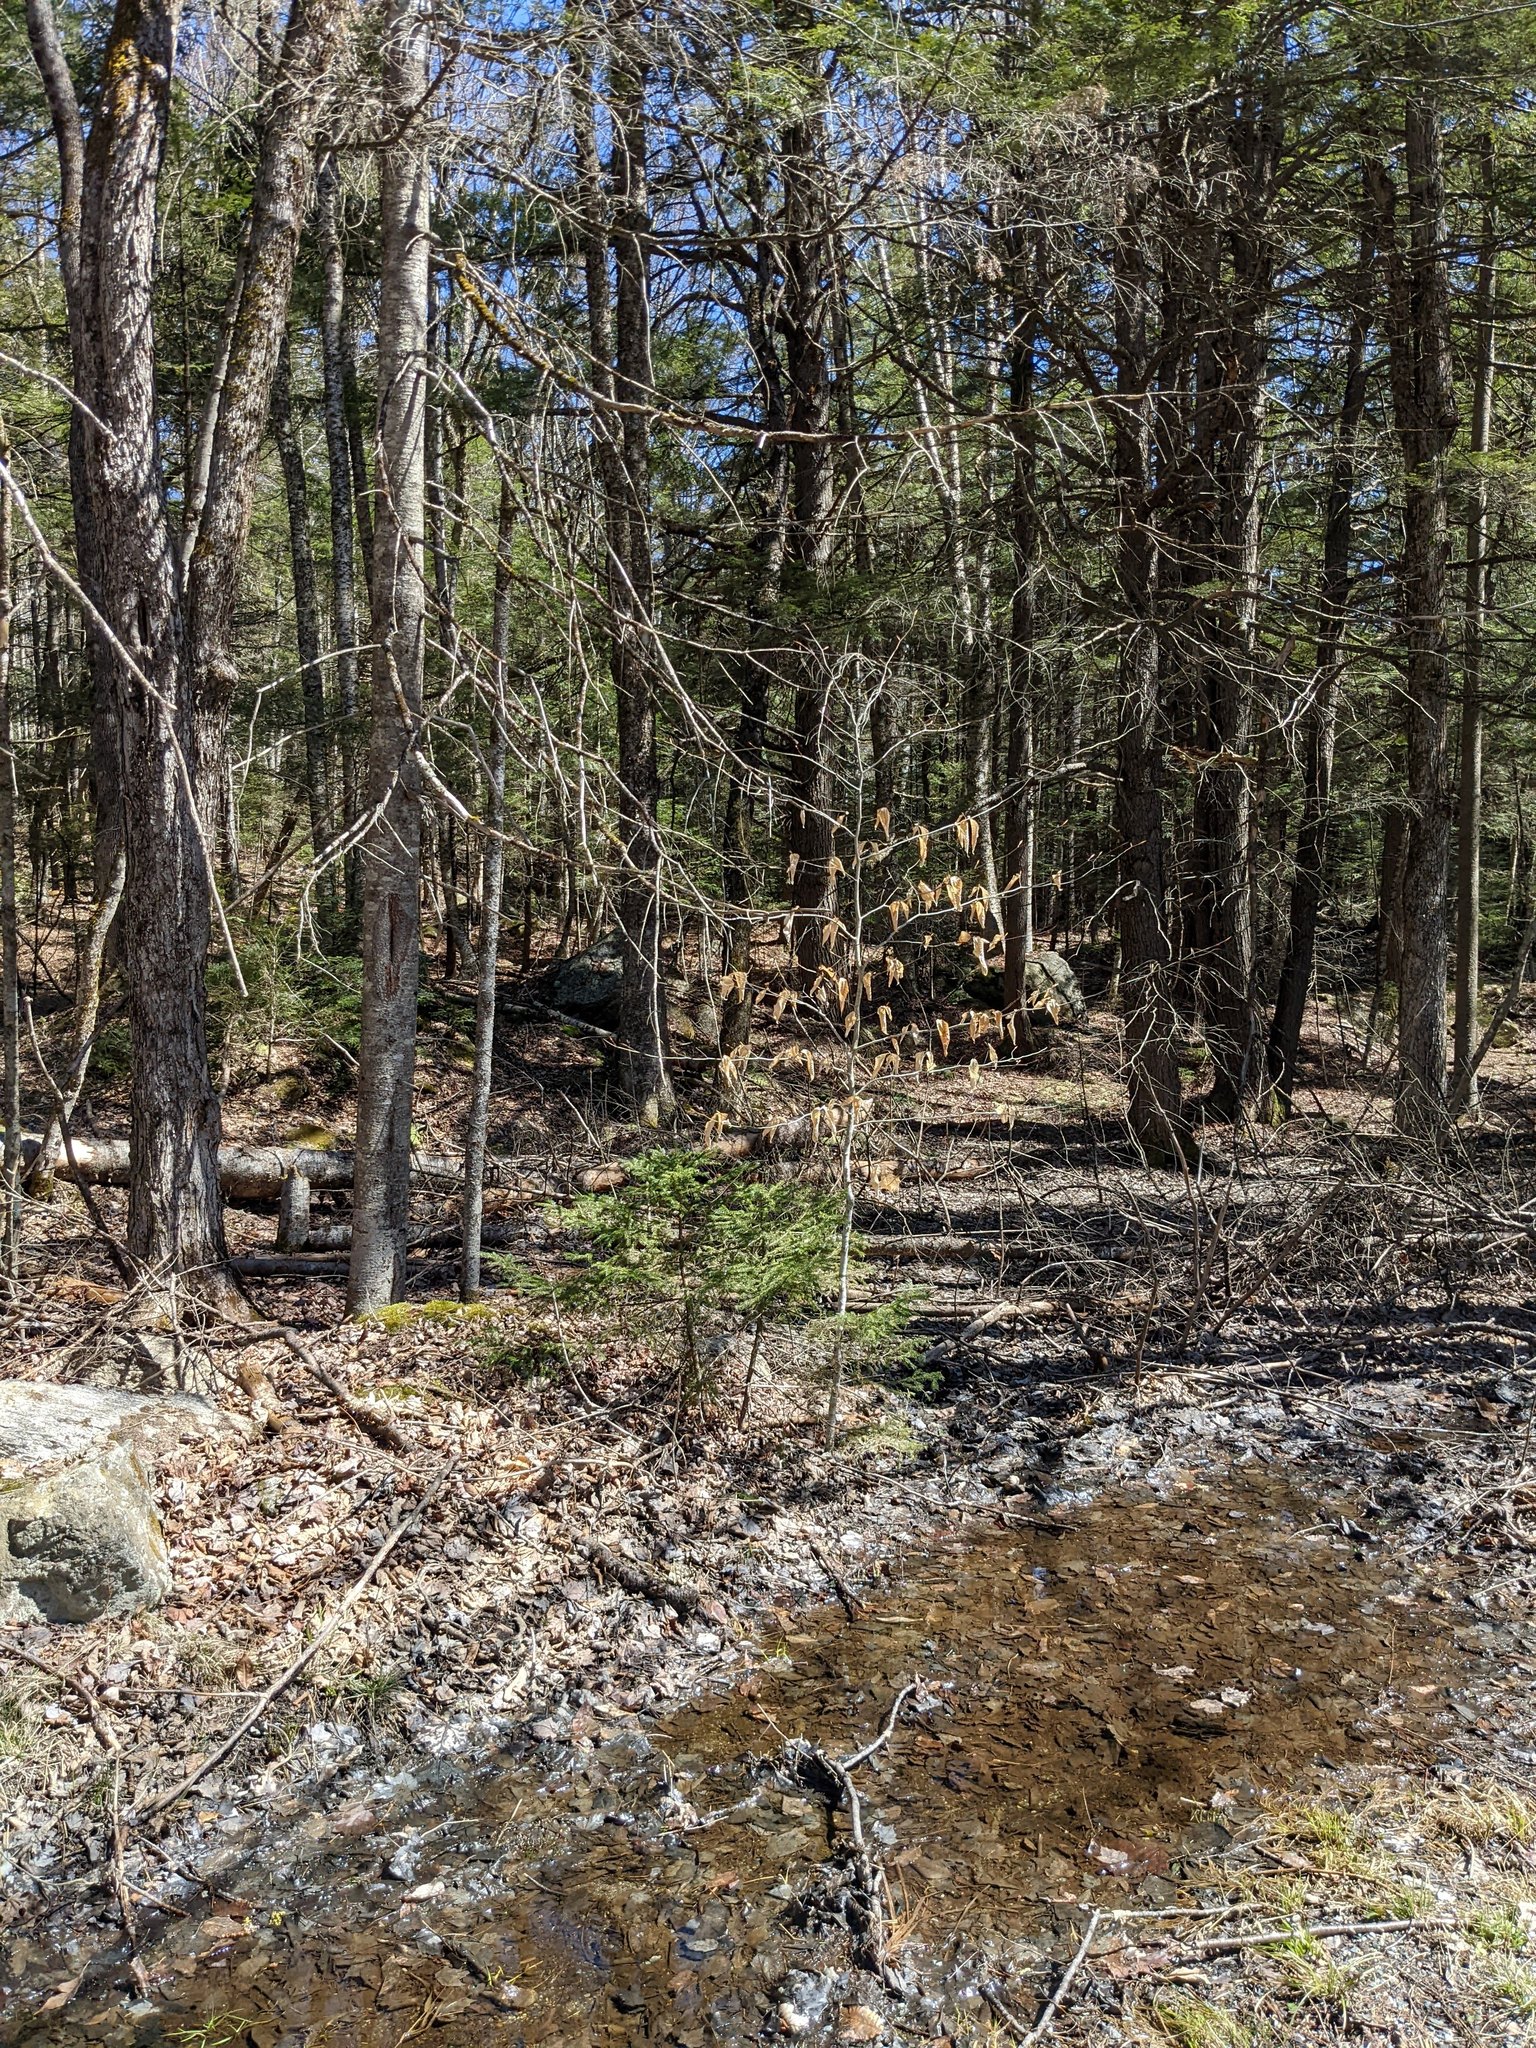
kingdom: Plantae
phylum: Tracheophyta
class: Magnoliopsida
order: Fagales
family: Fagaceae
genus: Fagus
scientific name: Fagus grandifolia
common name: American beech
